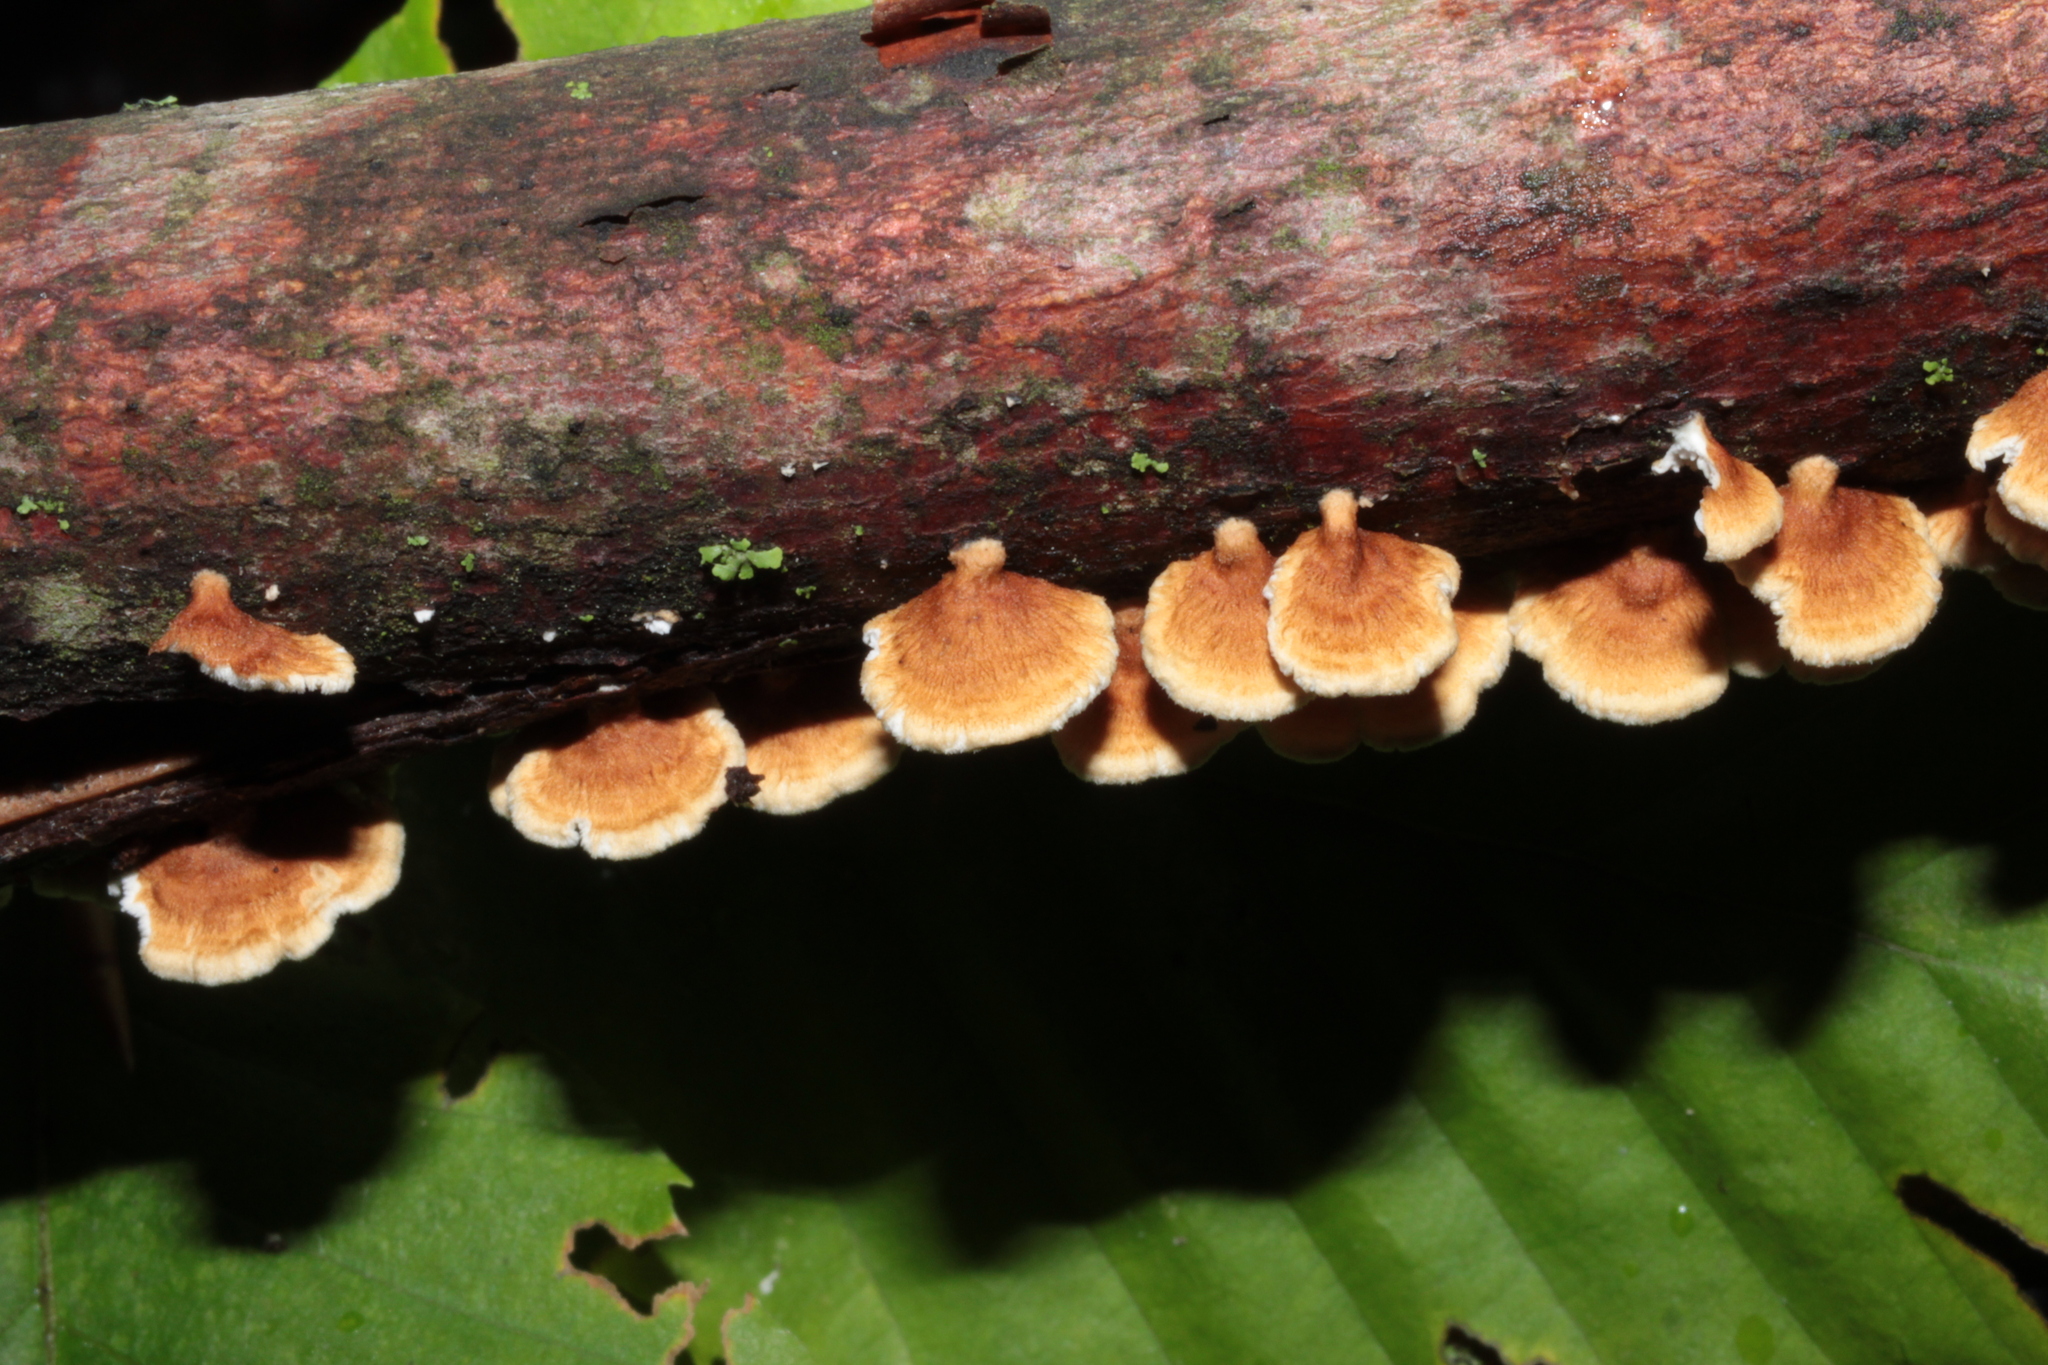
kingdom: Fungi
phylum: Basidiomycota
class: Agaricomycetes
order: Amylocorticiales
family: Amylocorticiaceae
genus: Plicaturopsis
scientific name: Plicaturopsis crispa
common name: Crimped gill
